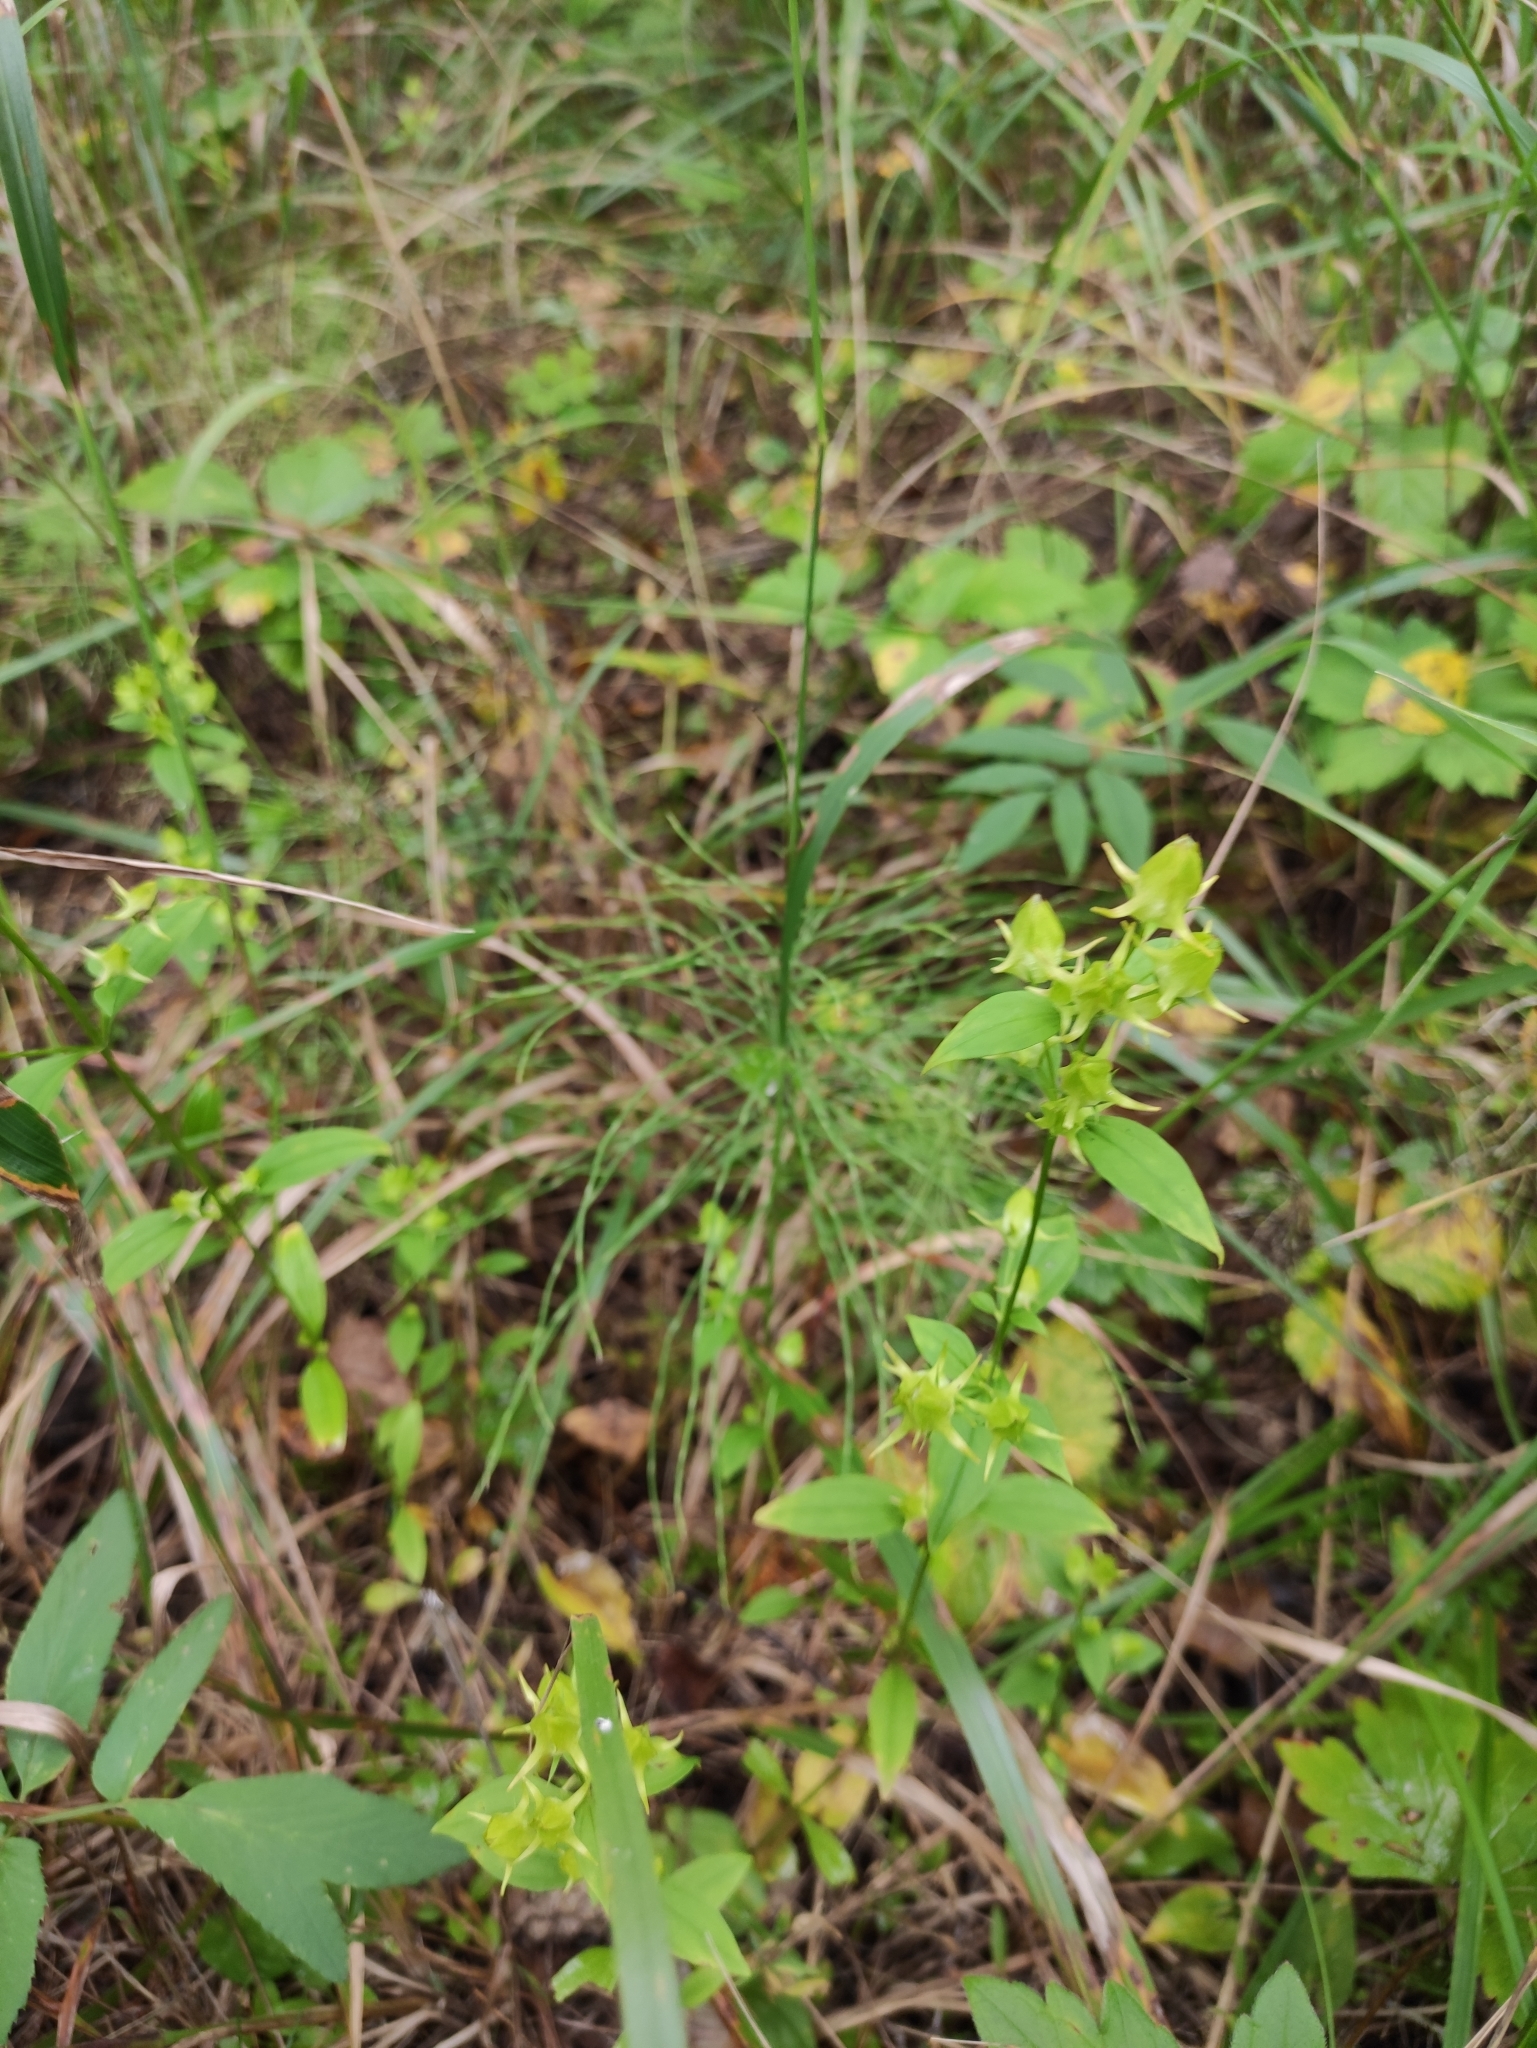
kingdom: Plantae
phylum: Tracheophyta
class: Magnoliopsida
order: Gentianales
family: Gentianaceae
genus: Halenia
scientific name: Halenia corniculata
